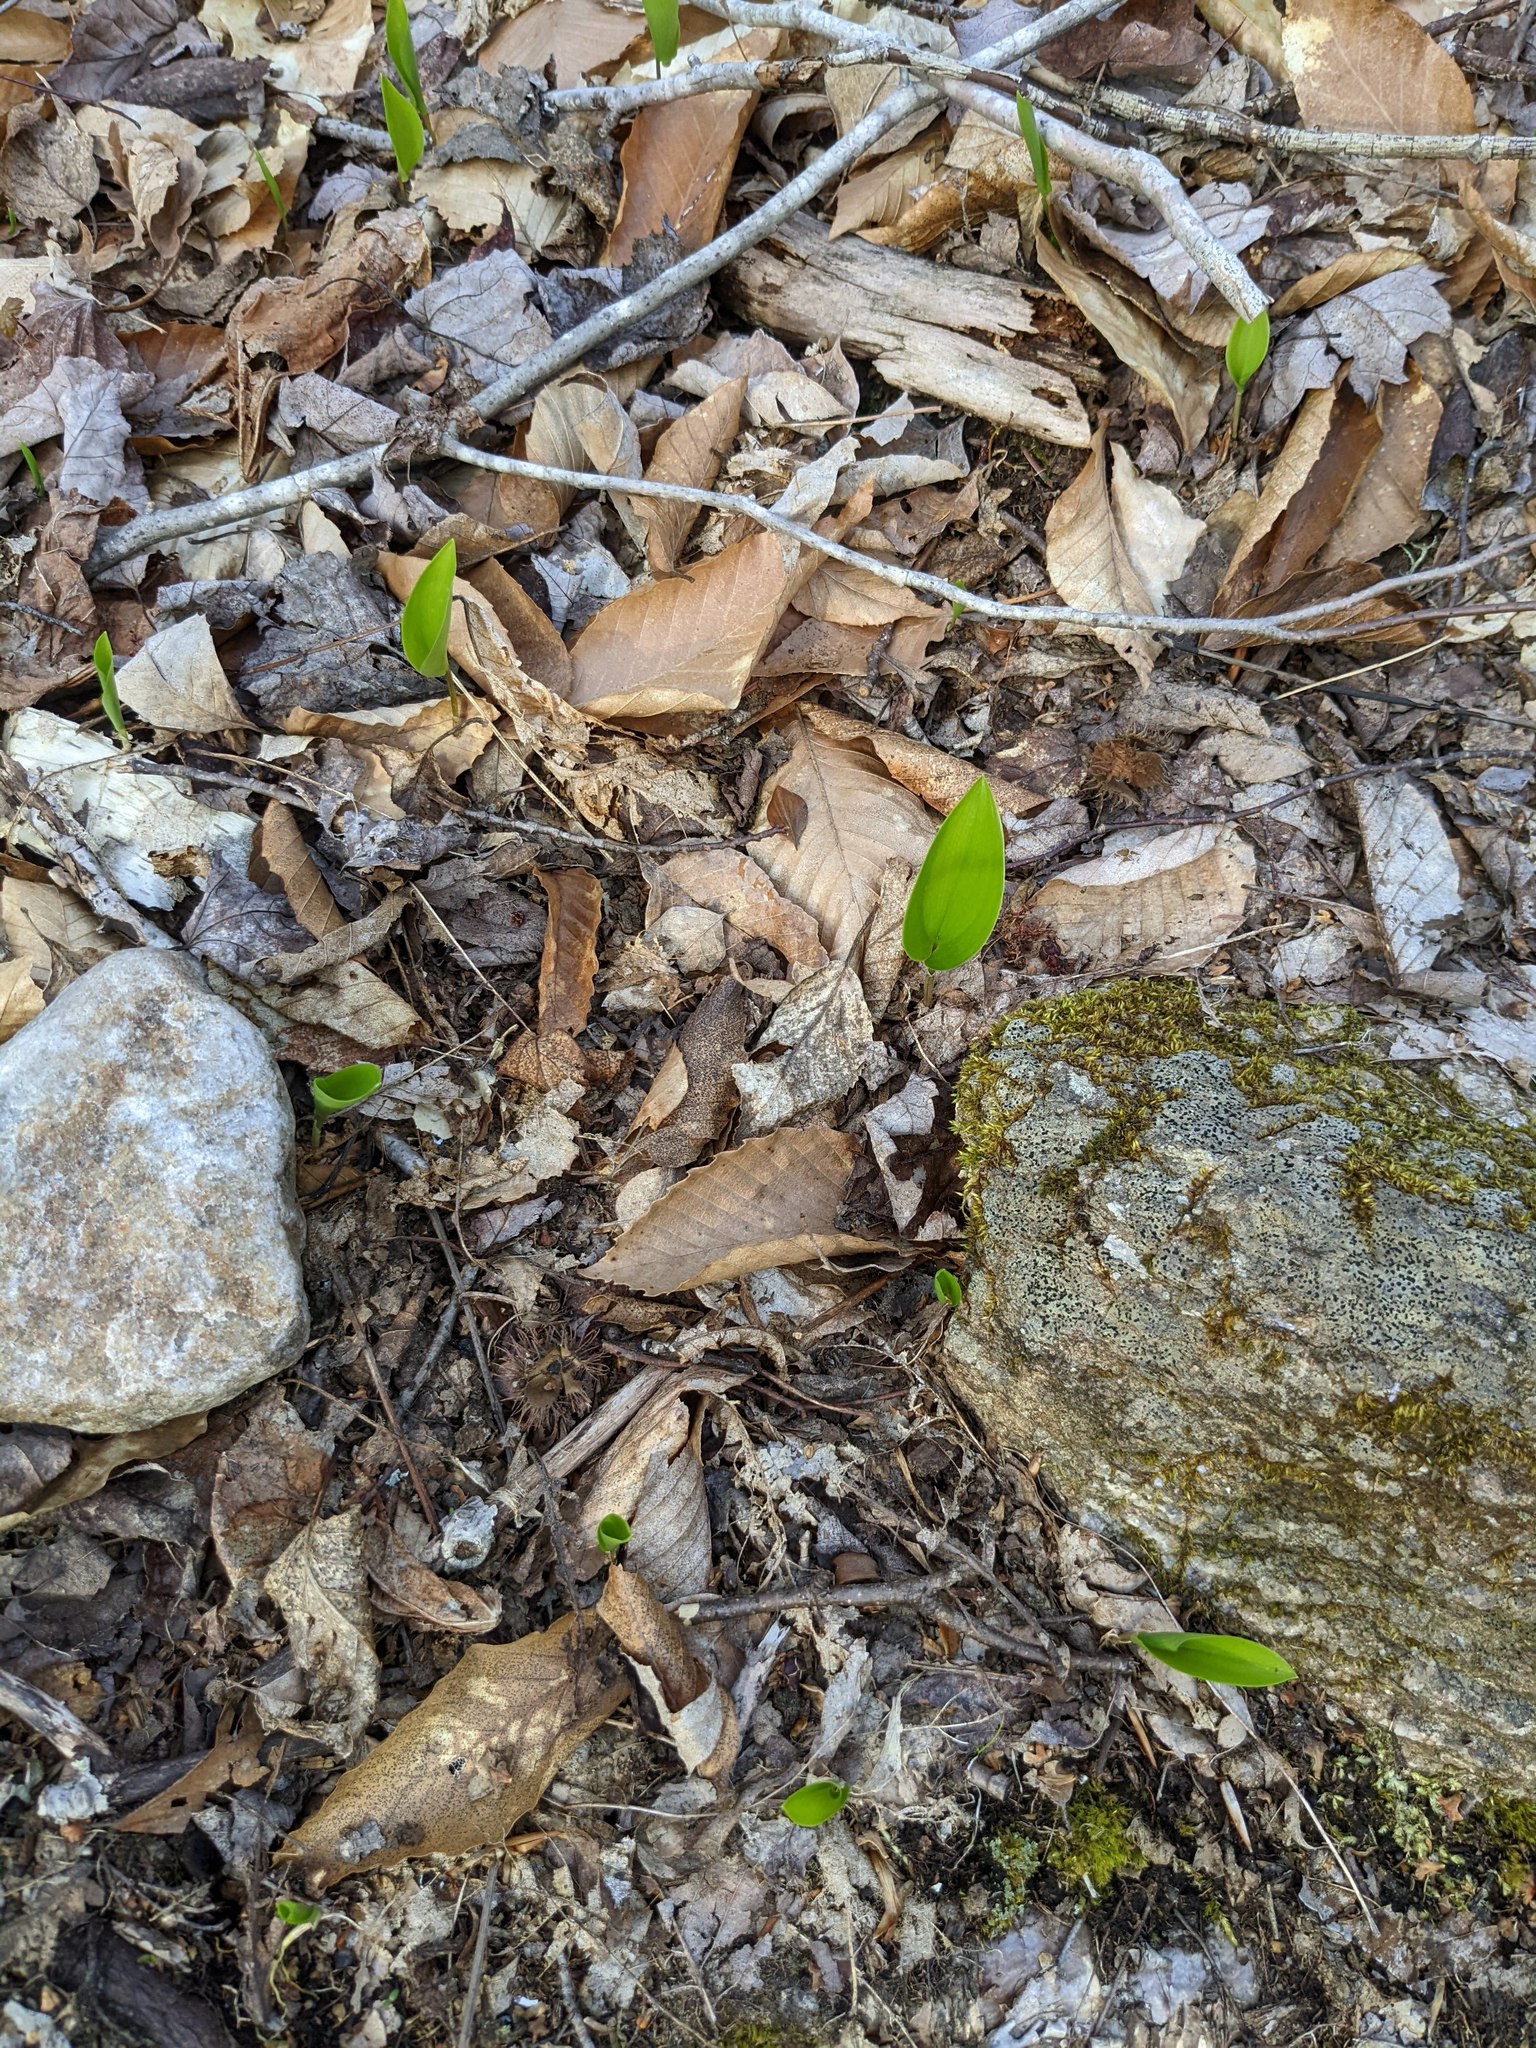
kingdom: Plantae
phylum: Tracheophyta
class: Liliopsida
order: Asparagales
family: Asparagaceae
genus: Maianthemum
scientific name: Maianthemum canadense
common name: False lily-of-the-valley
